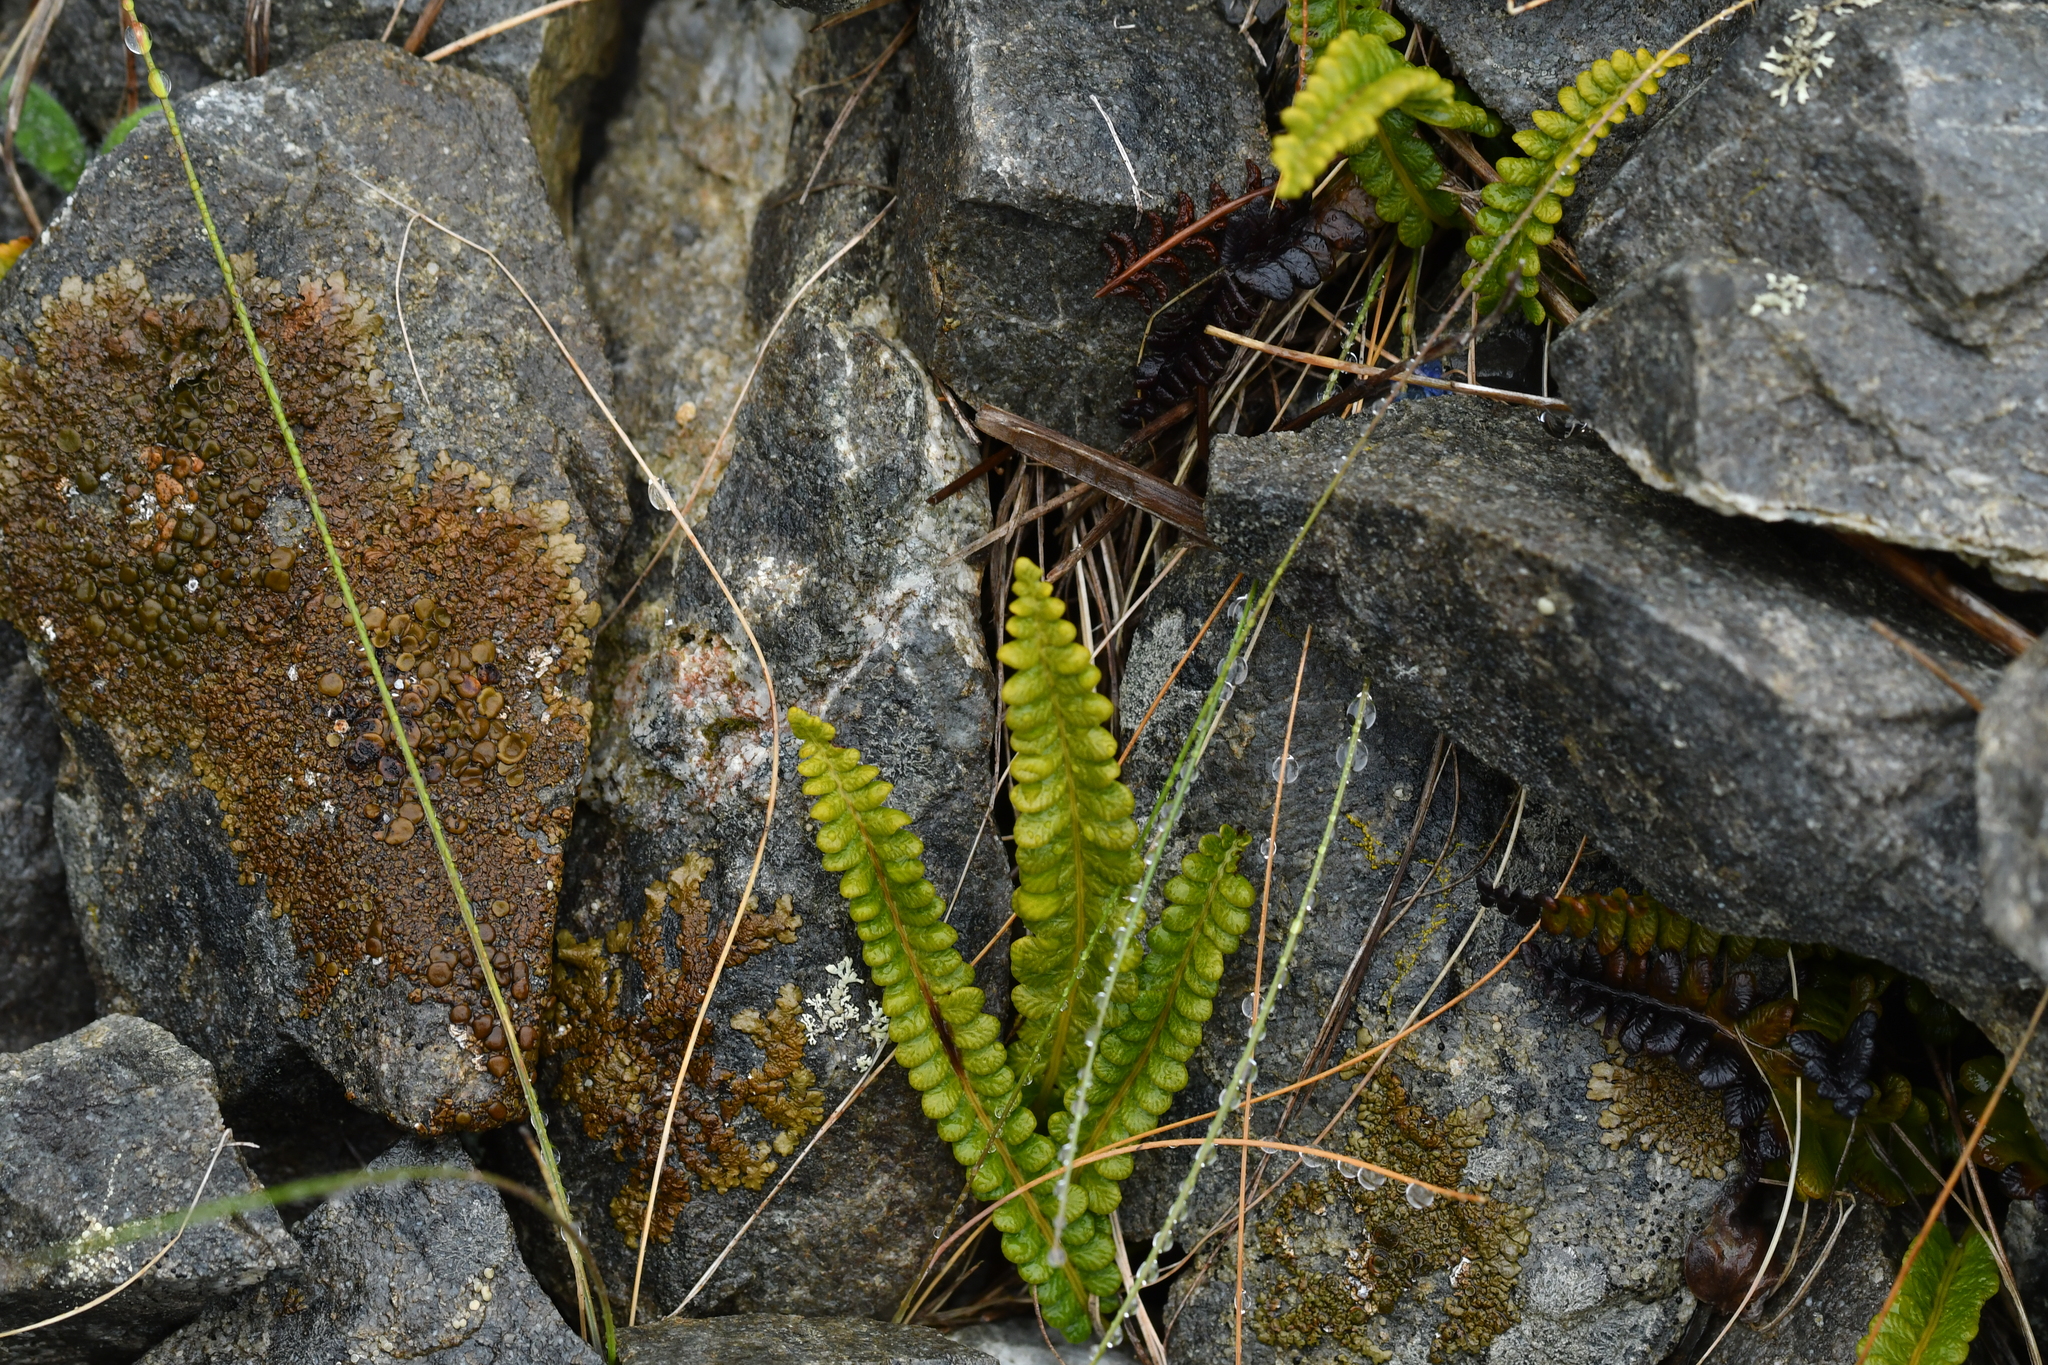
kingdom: Plantae
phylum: Tracheophyta
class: Polypodiopsida
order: Polypodiales
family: Blechnaceae
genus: Austroblechnum
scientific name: Austroblechnum penna-marina
